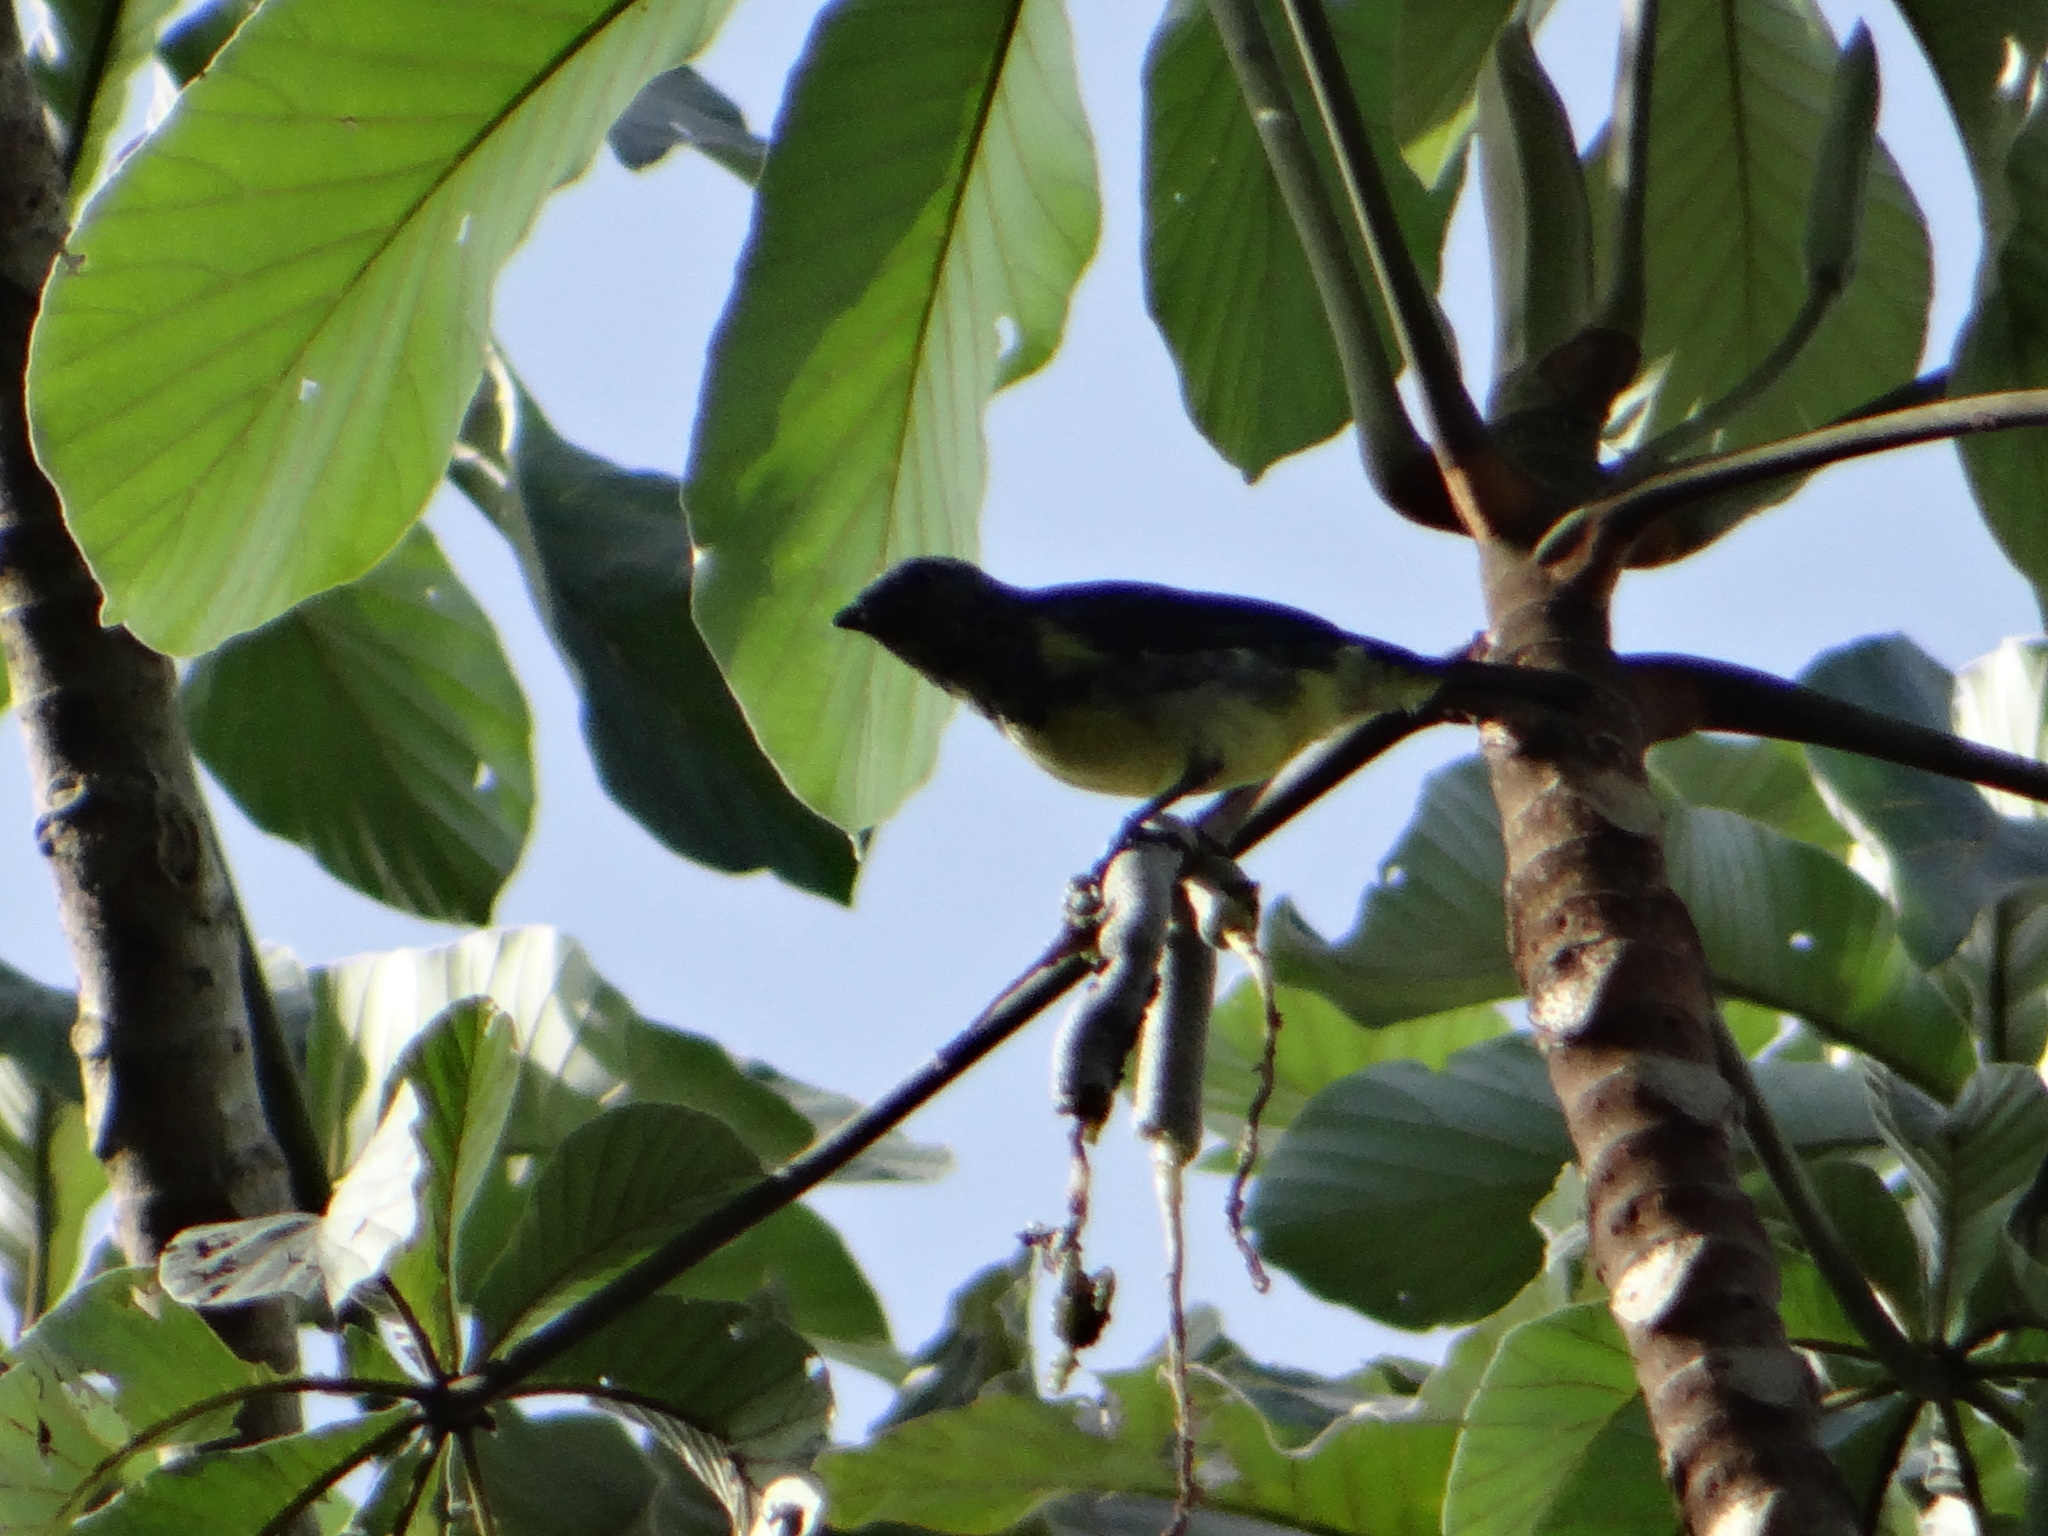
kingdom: Animalia
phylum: Chordata
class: Aves
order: Passeriformes
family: Thraupidae
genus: Tangara
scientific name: Tangara mexicana
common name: Turquoise tanager
